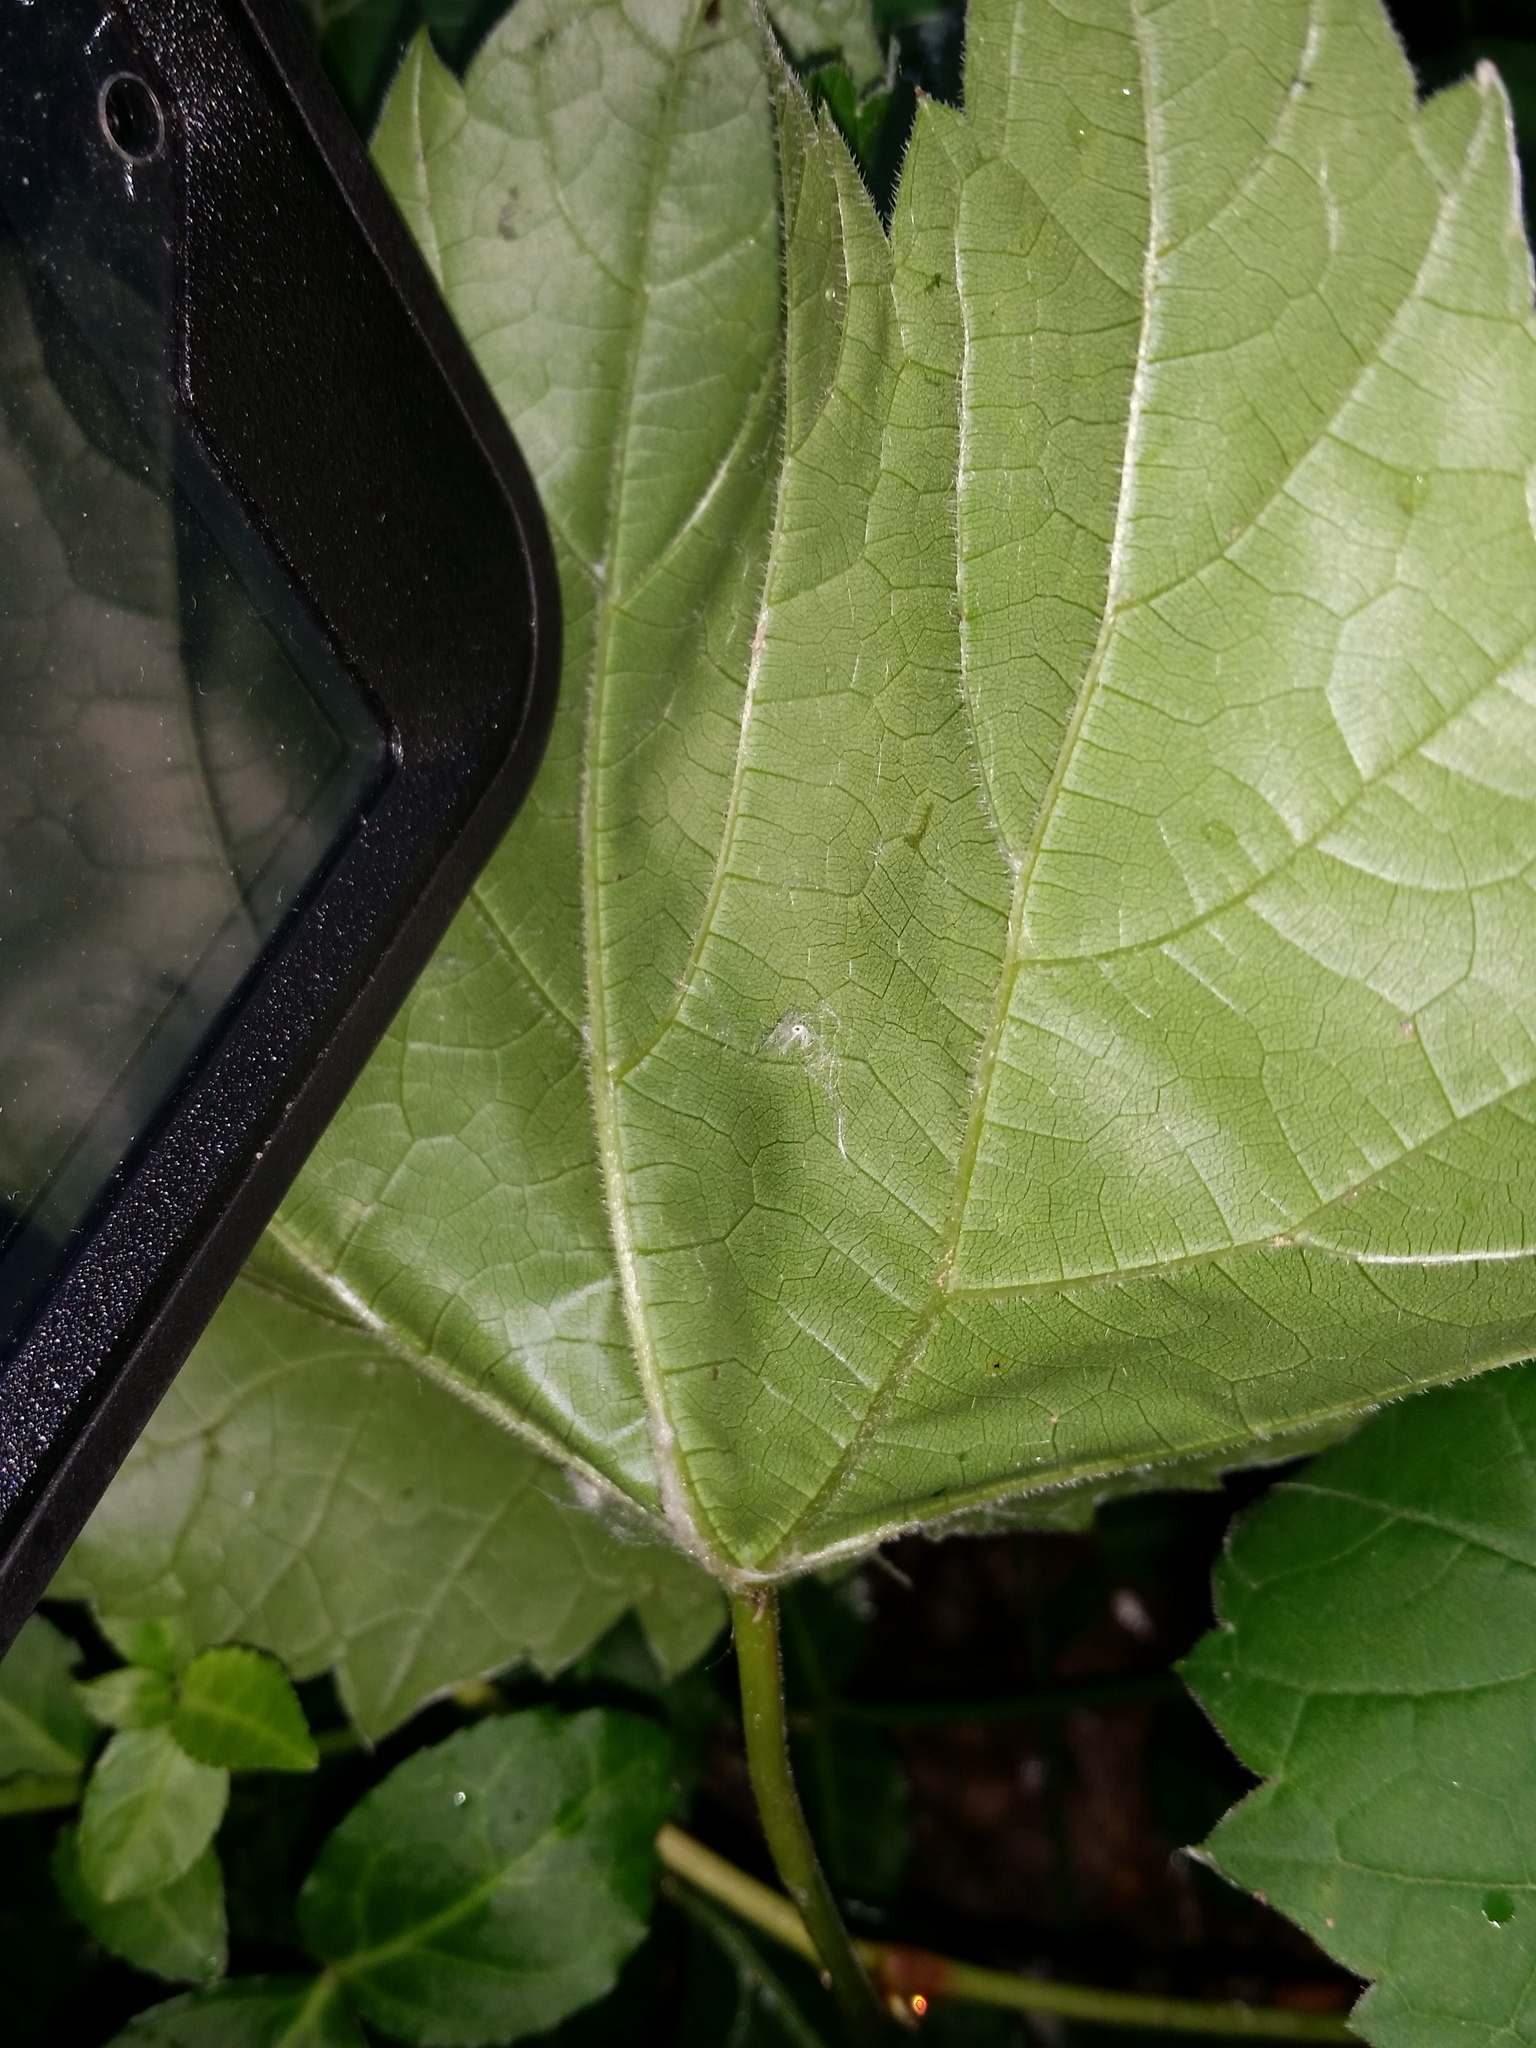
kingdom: Plantae
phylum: Tracheophyta
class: Magnoliopsida
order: Vitales
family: Vitaceae
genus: Vitis
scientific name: Vitis riparia
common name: Frost grape
